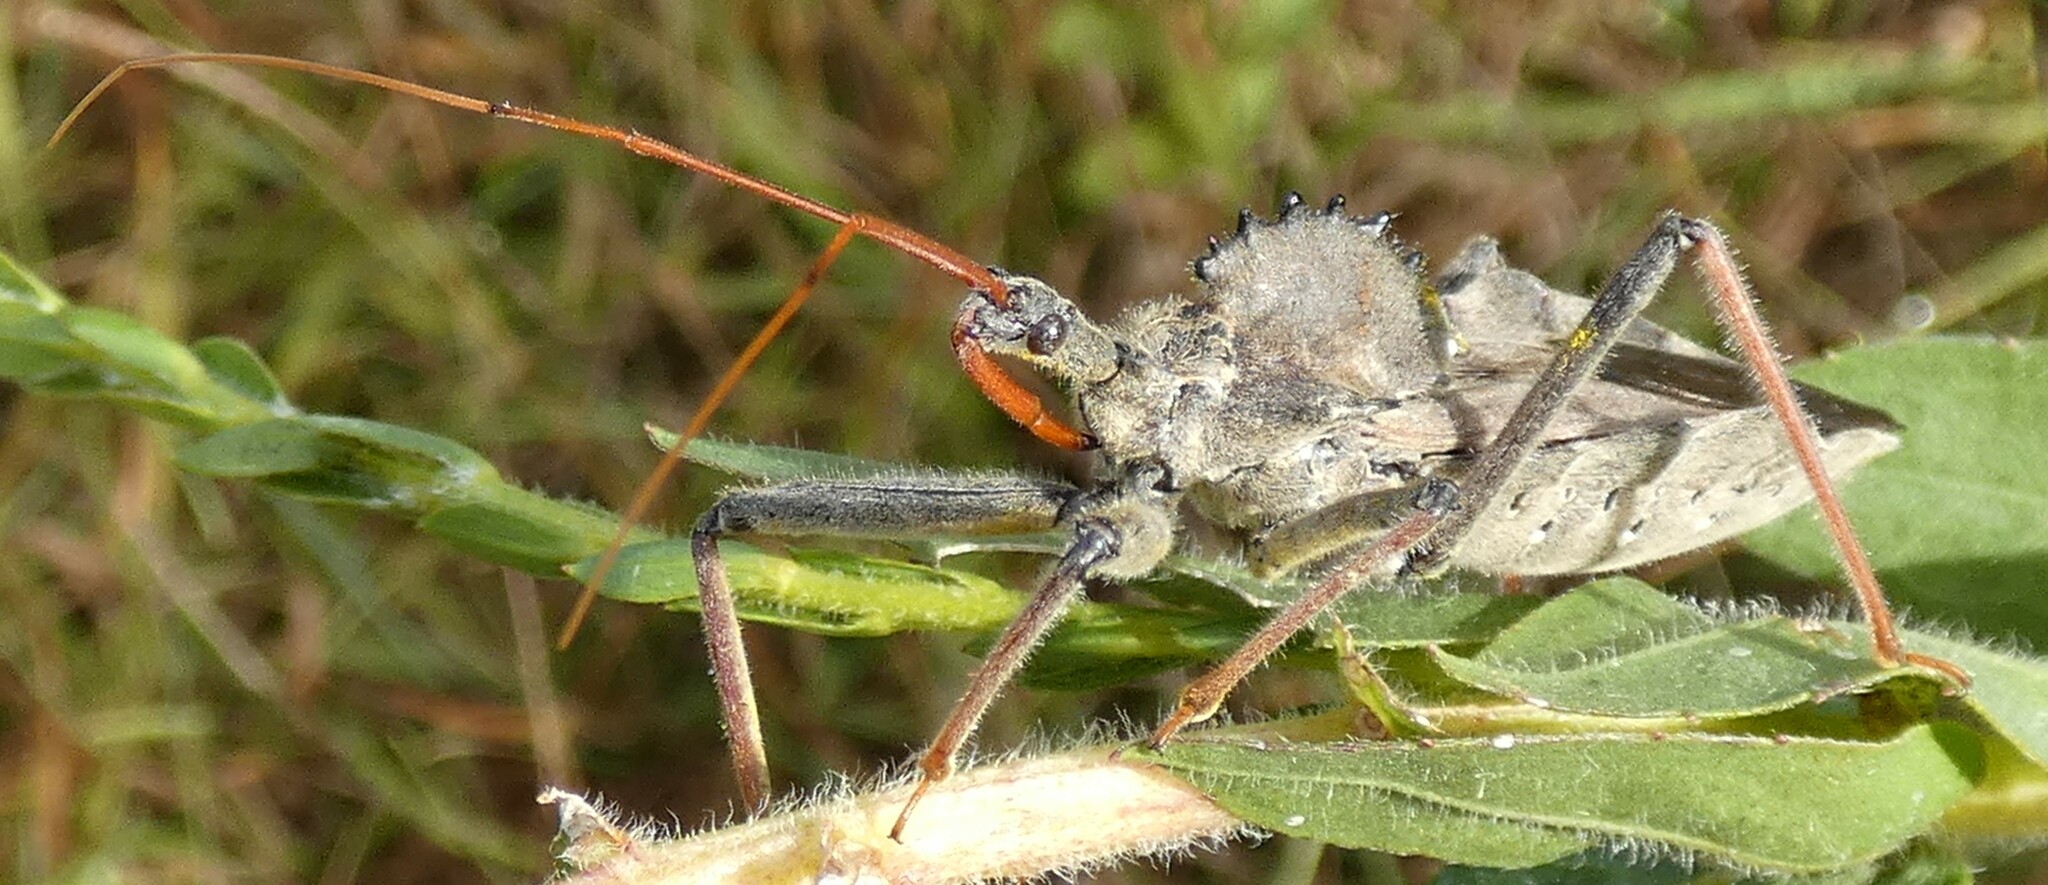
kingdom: Animalia
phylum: Arthropoda
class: Insecta
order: Hemiptera
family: Reduviidae
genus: Arilus
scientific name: Arilus cristatus
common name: North american wheel bug
